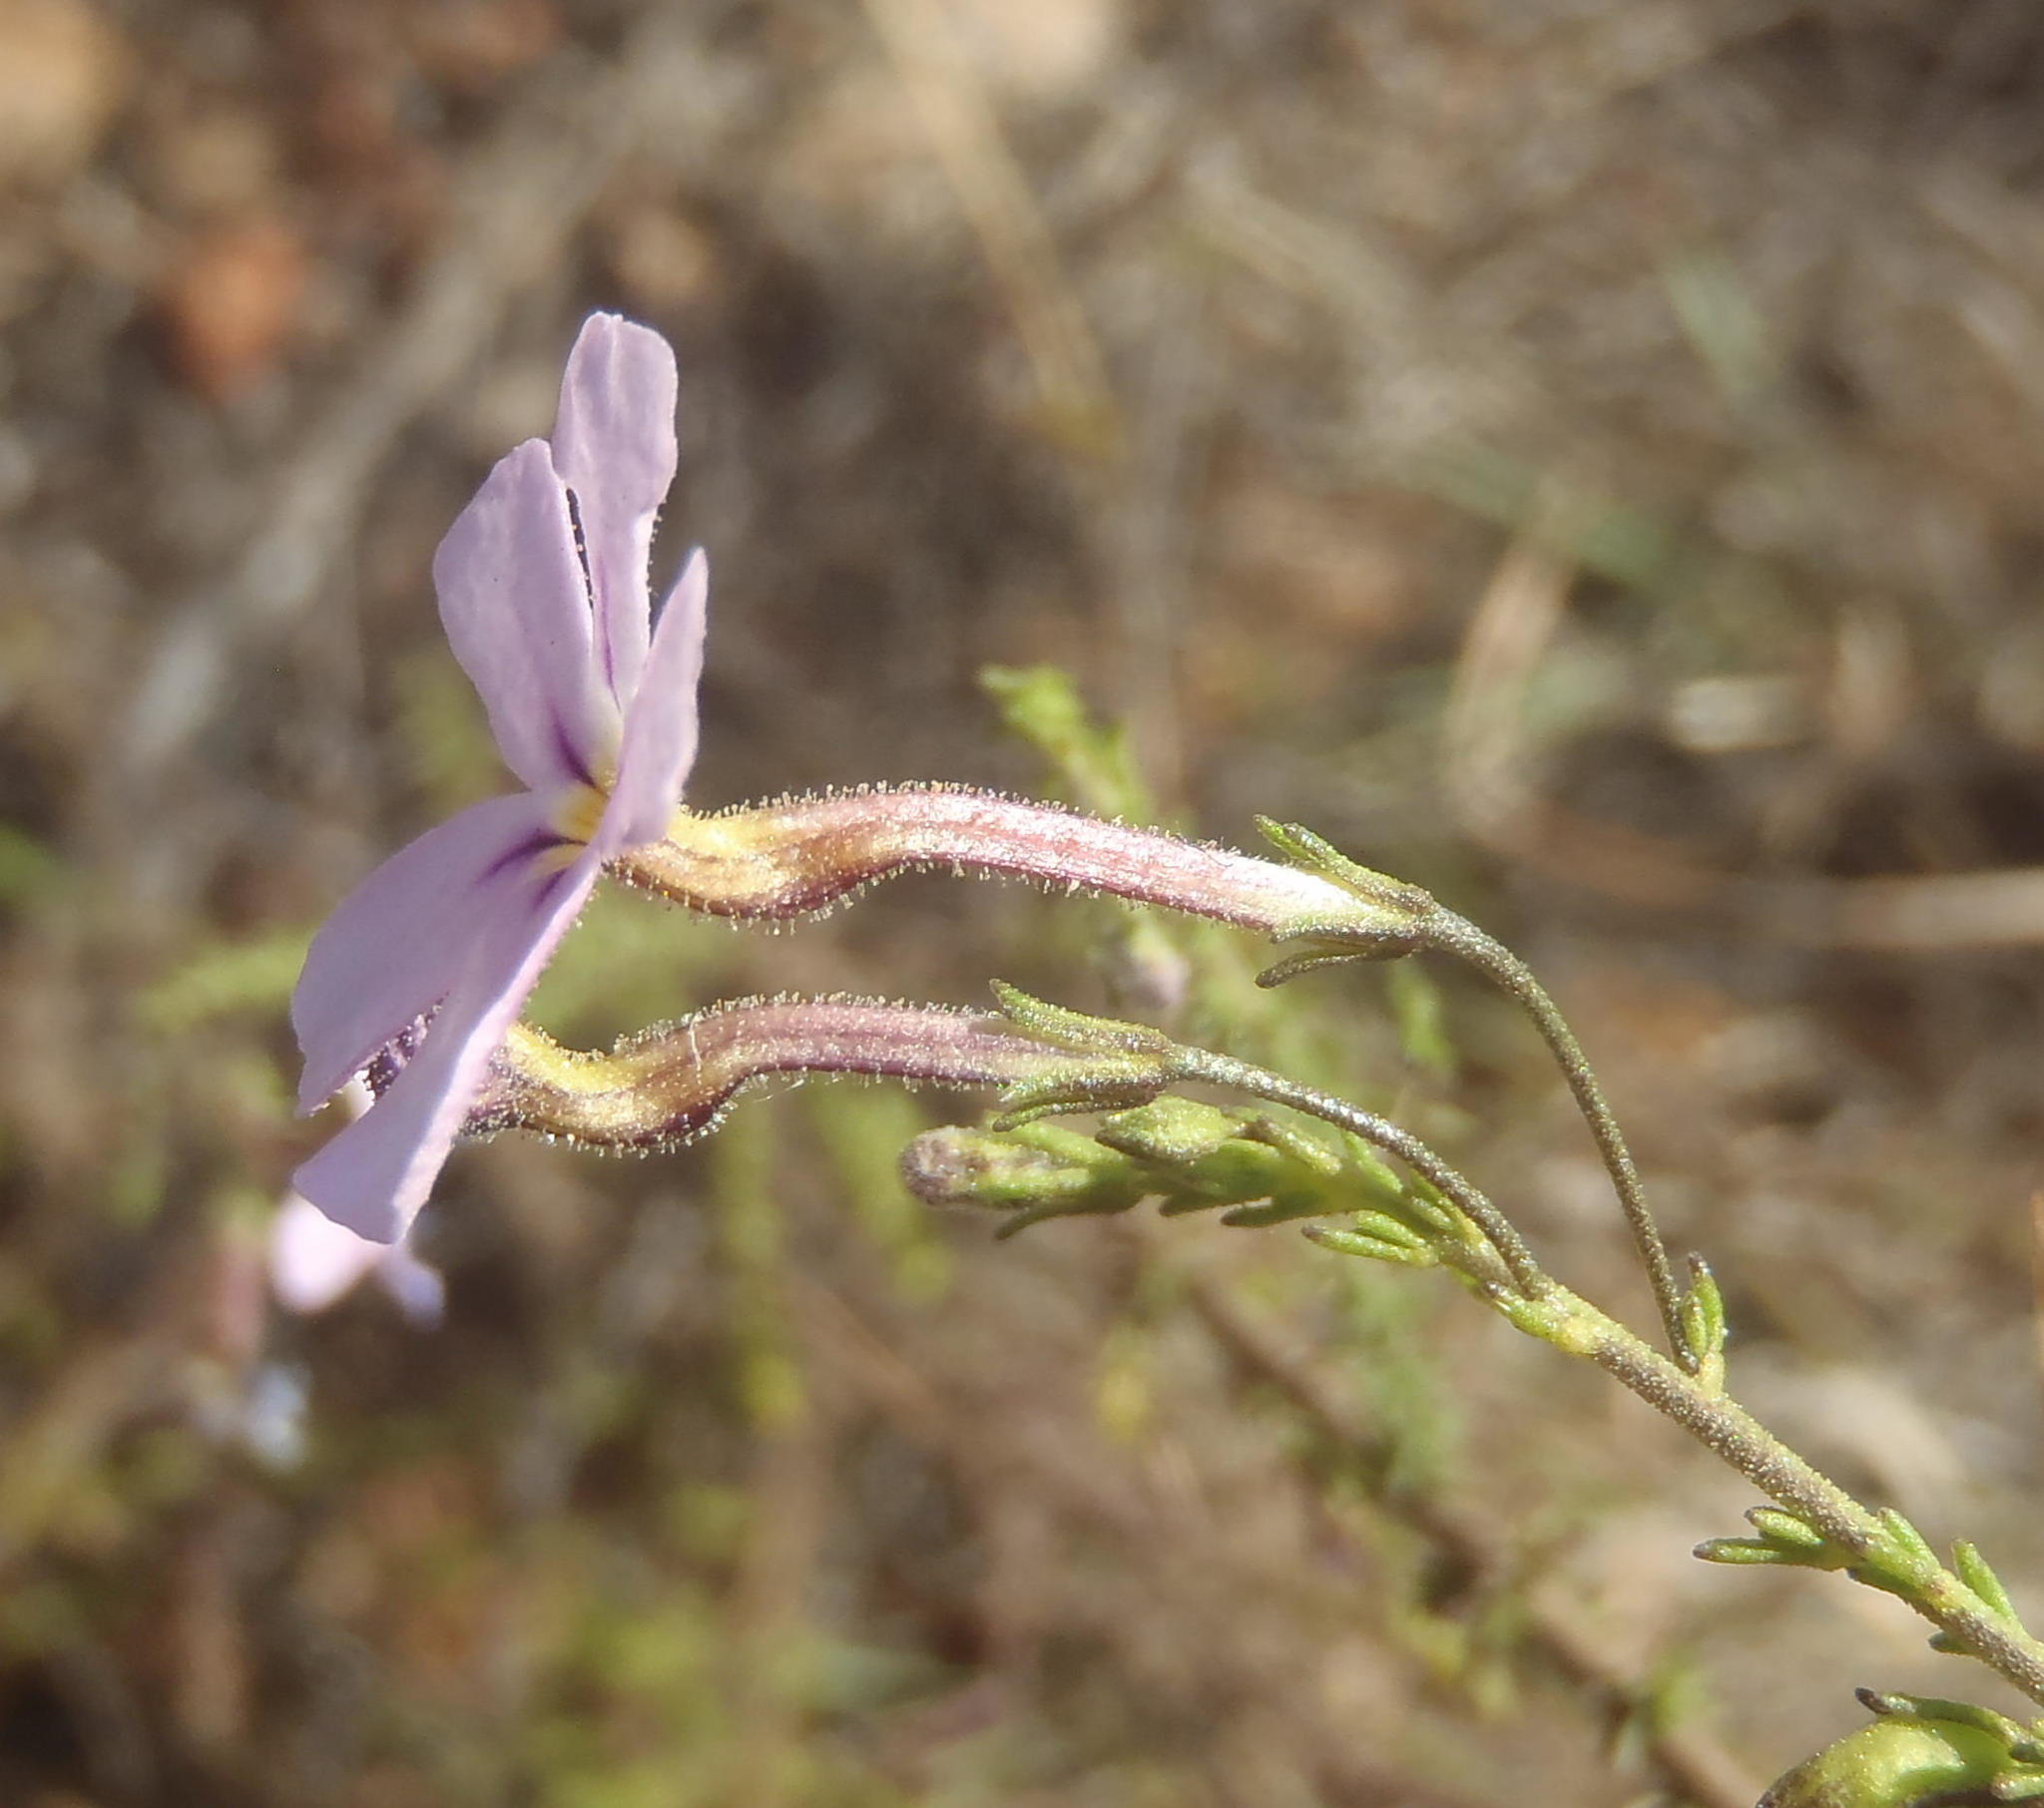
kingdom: Plantae
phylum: Tracheophyta
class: Magnoliopsida
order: Lamiales
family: Scrophulariaceae
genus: Jamesbrittenia
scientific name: Jamesbrittenia aspalathoides
